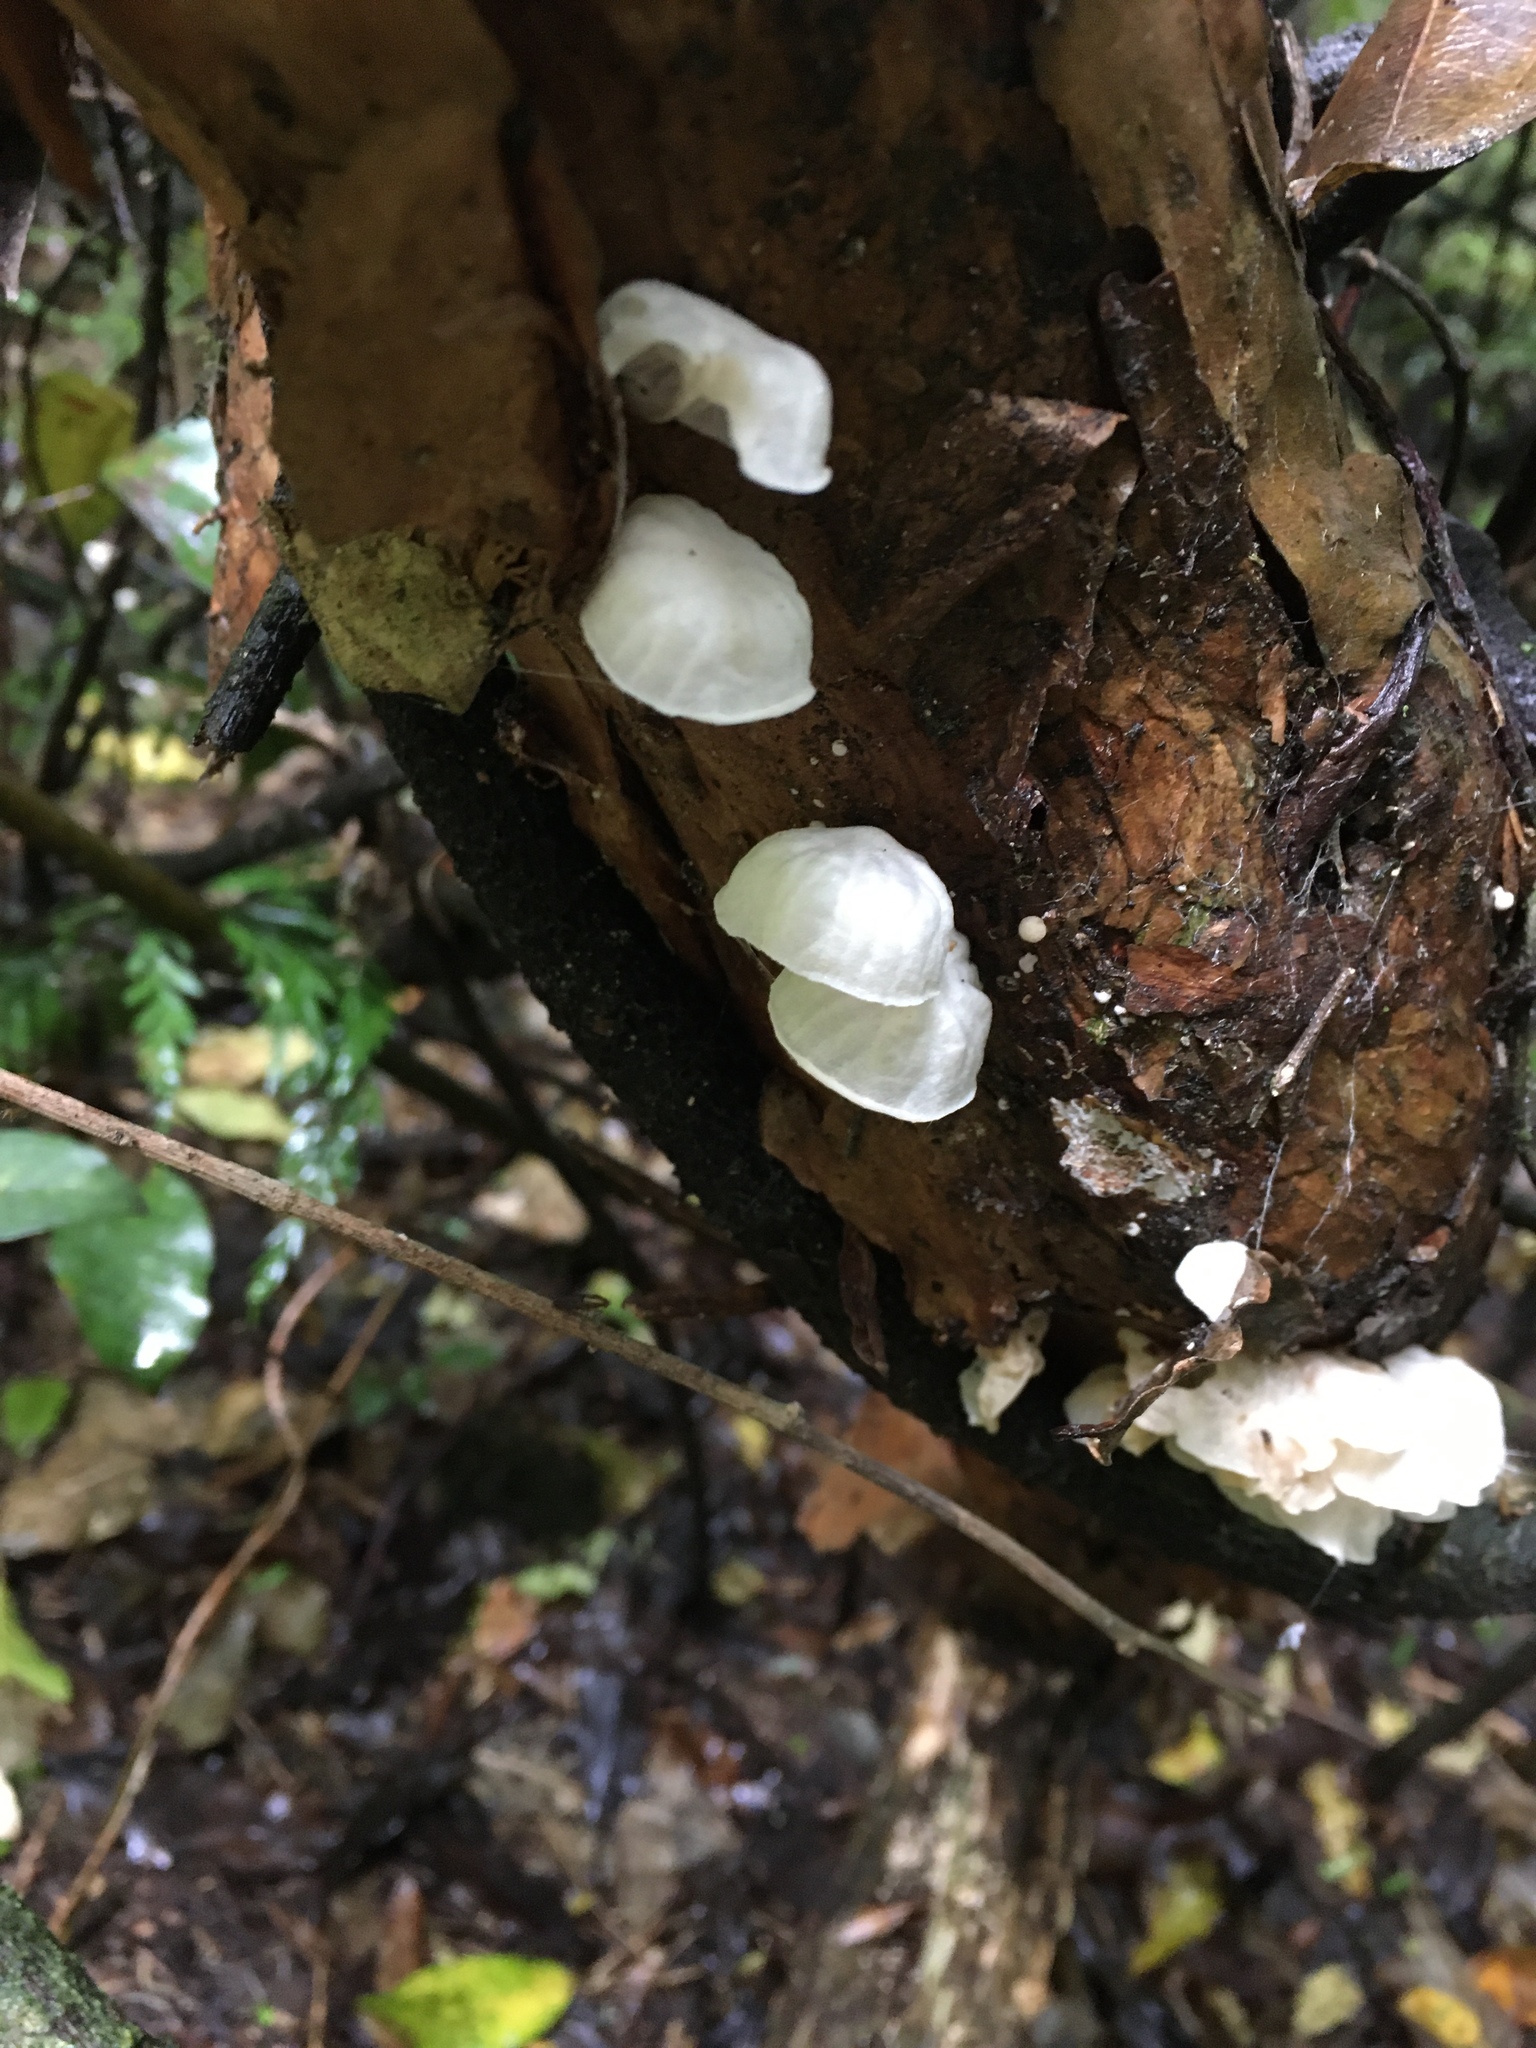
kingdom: Fungi
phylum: Basidiomycota
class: Agaricomycetes
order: Agaricales
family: Omphalotaceae
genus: Marasmiellus
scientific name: Marasmiellus candidus
